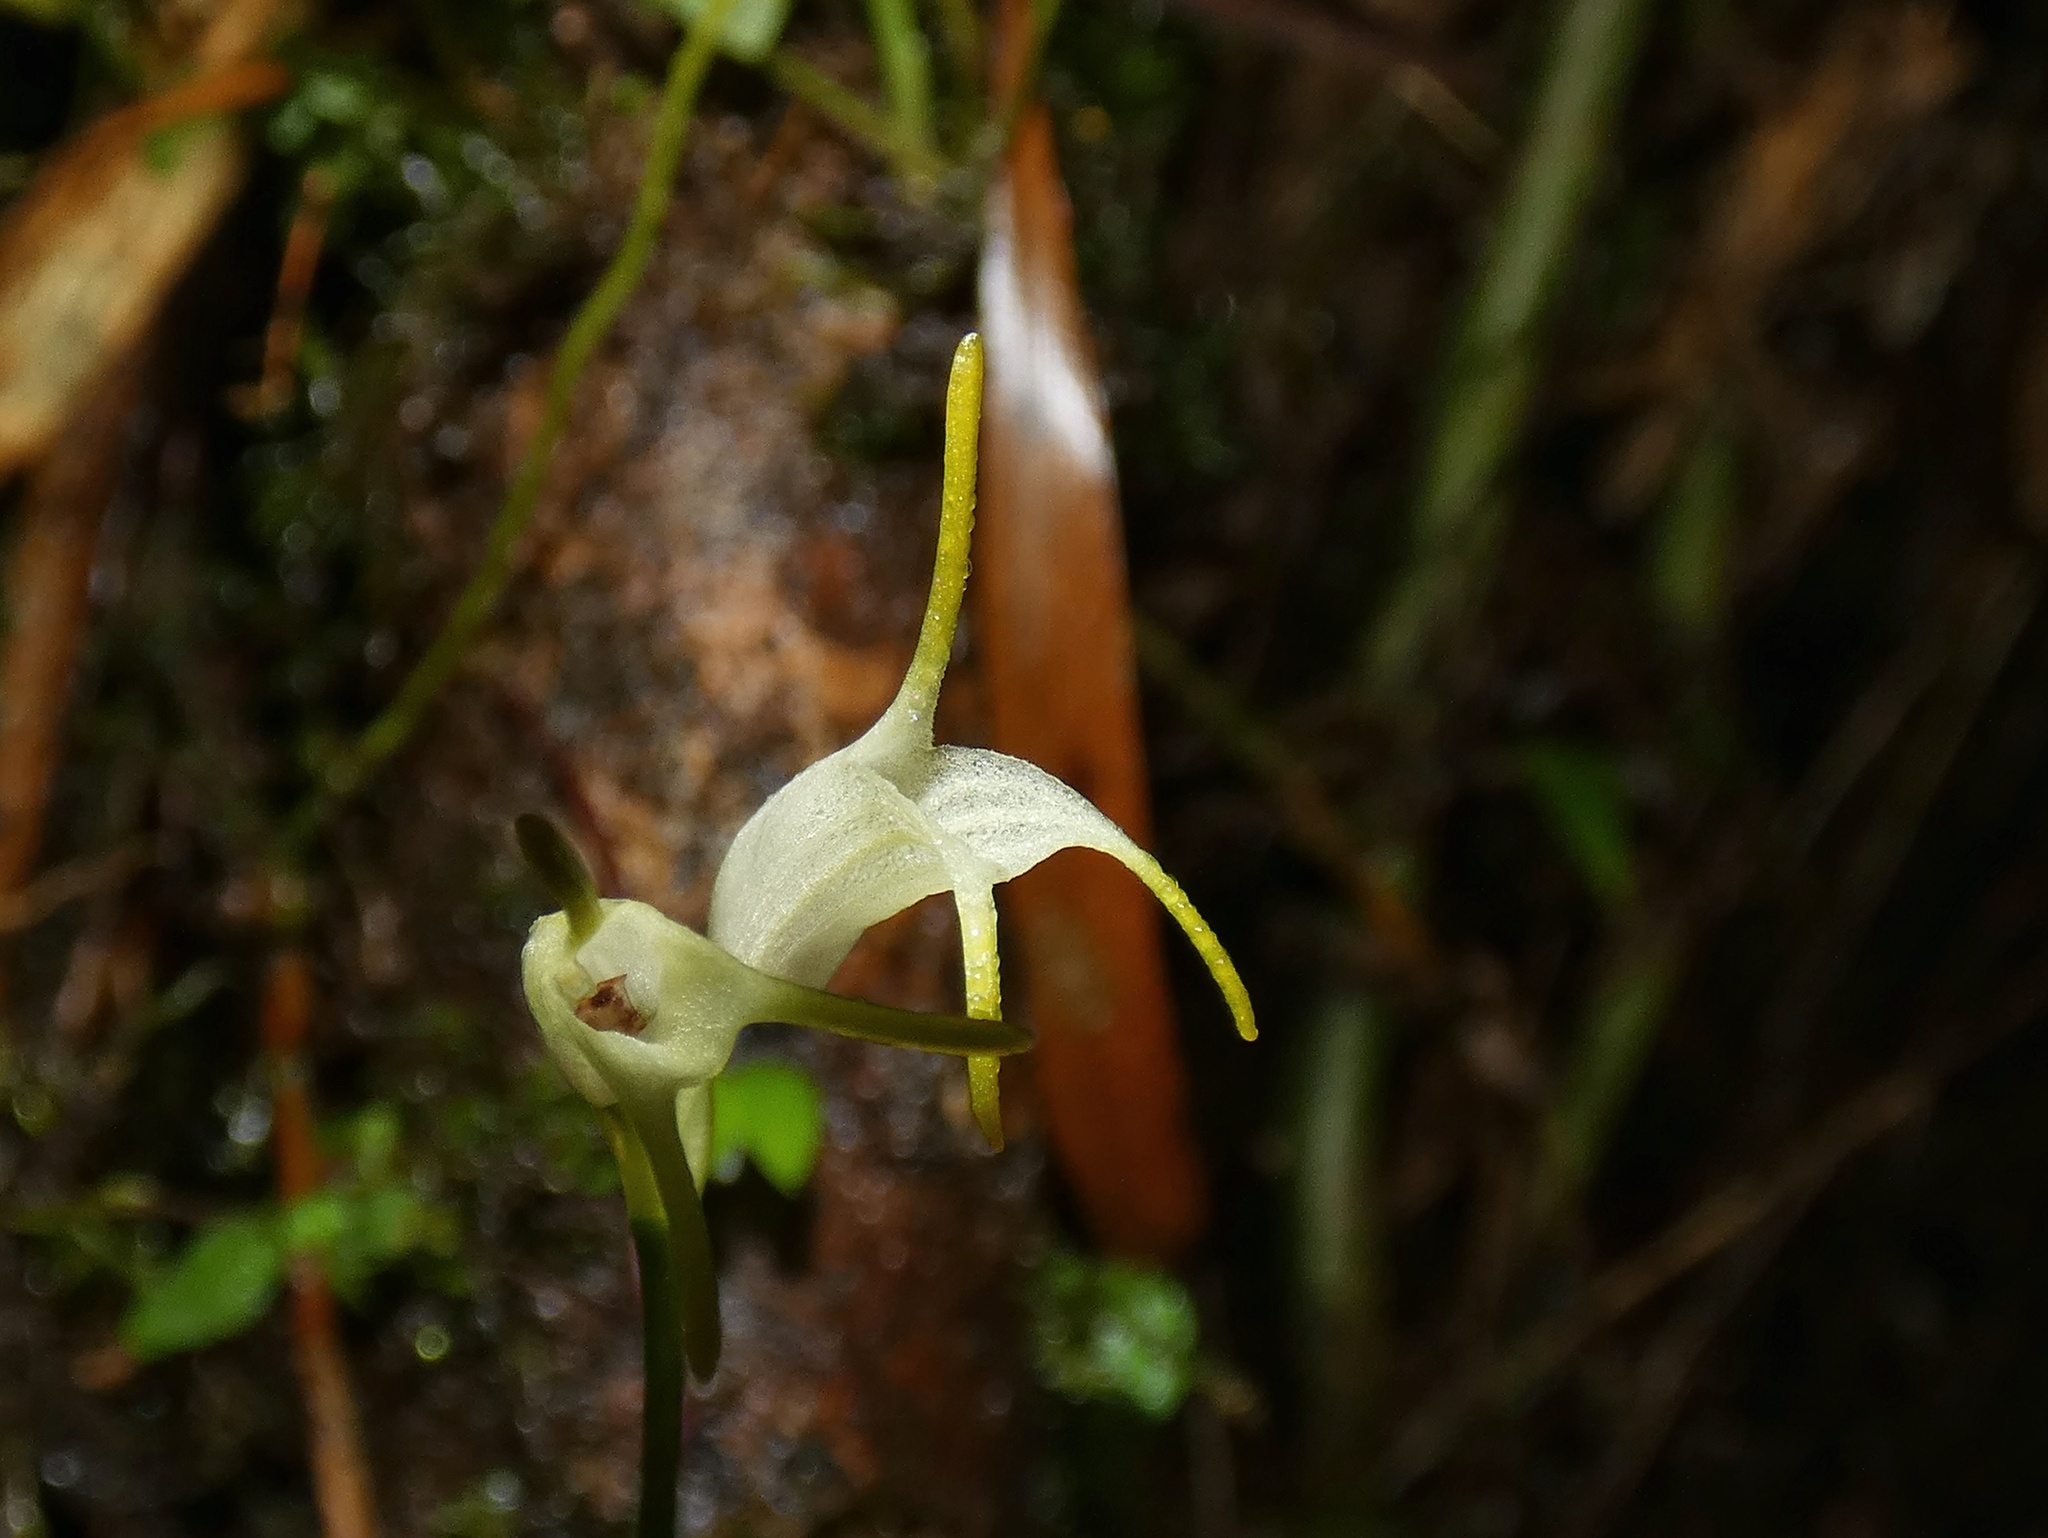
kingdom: Plantae
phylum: Tracheophyta
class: Liliopsida
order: Asparagales
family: Orchidaceae
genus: Masdevallia
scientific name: Masdevallia chontalensis
